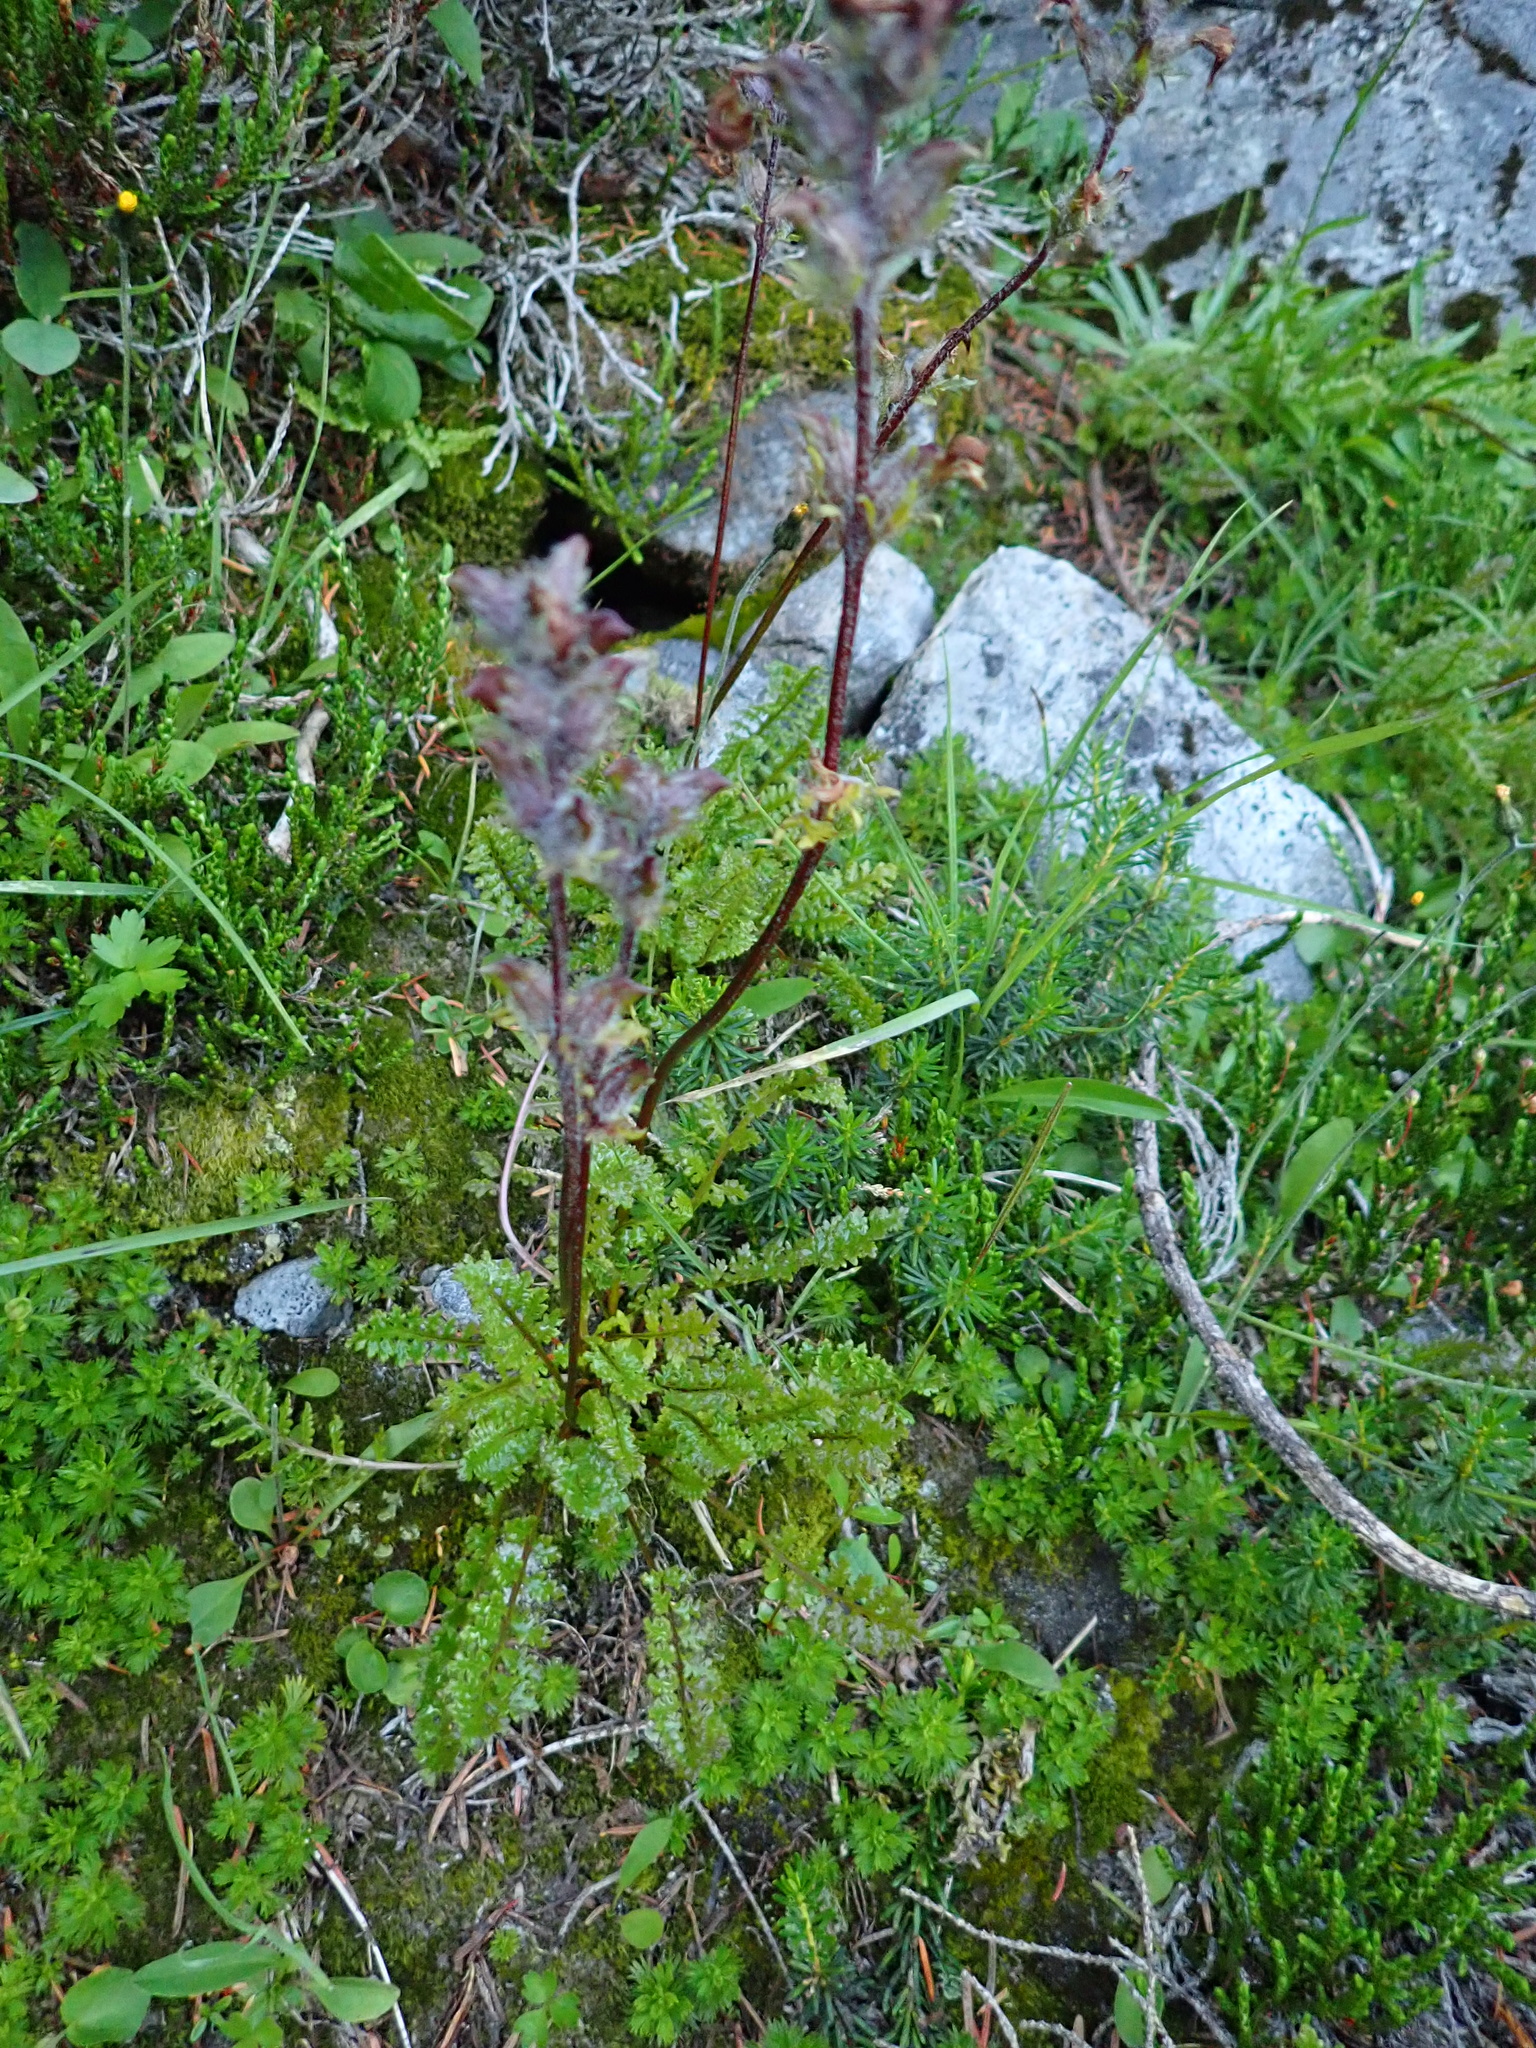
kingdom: Plantae
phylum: Tracheophyta
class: Magnoliopsida
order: Lamiales
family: Orobanchaceae
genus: Pedicularis
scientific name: Pedicularis ornithorhynchos
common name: Bird's-beak lousewort
